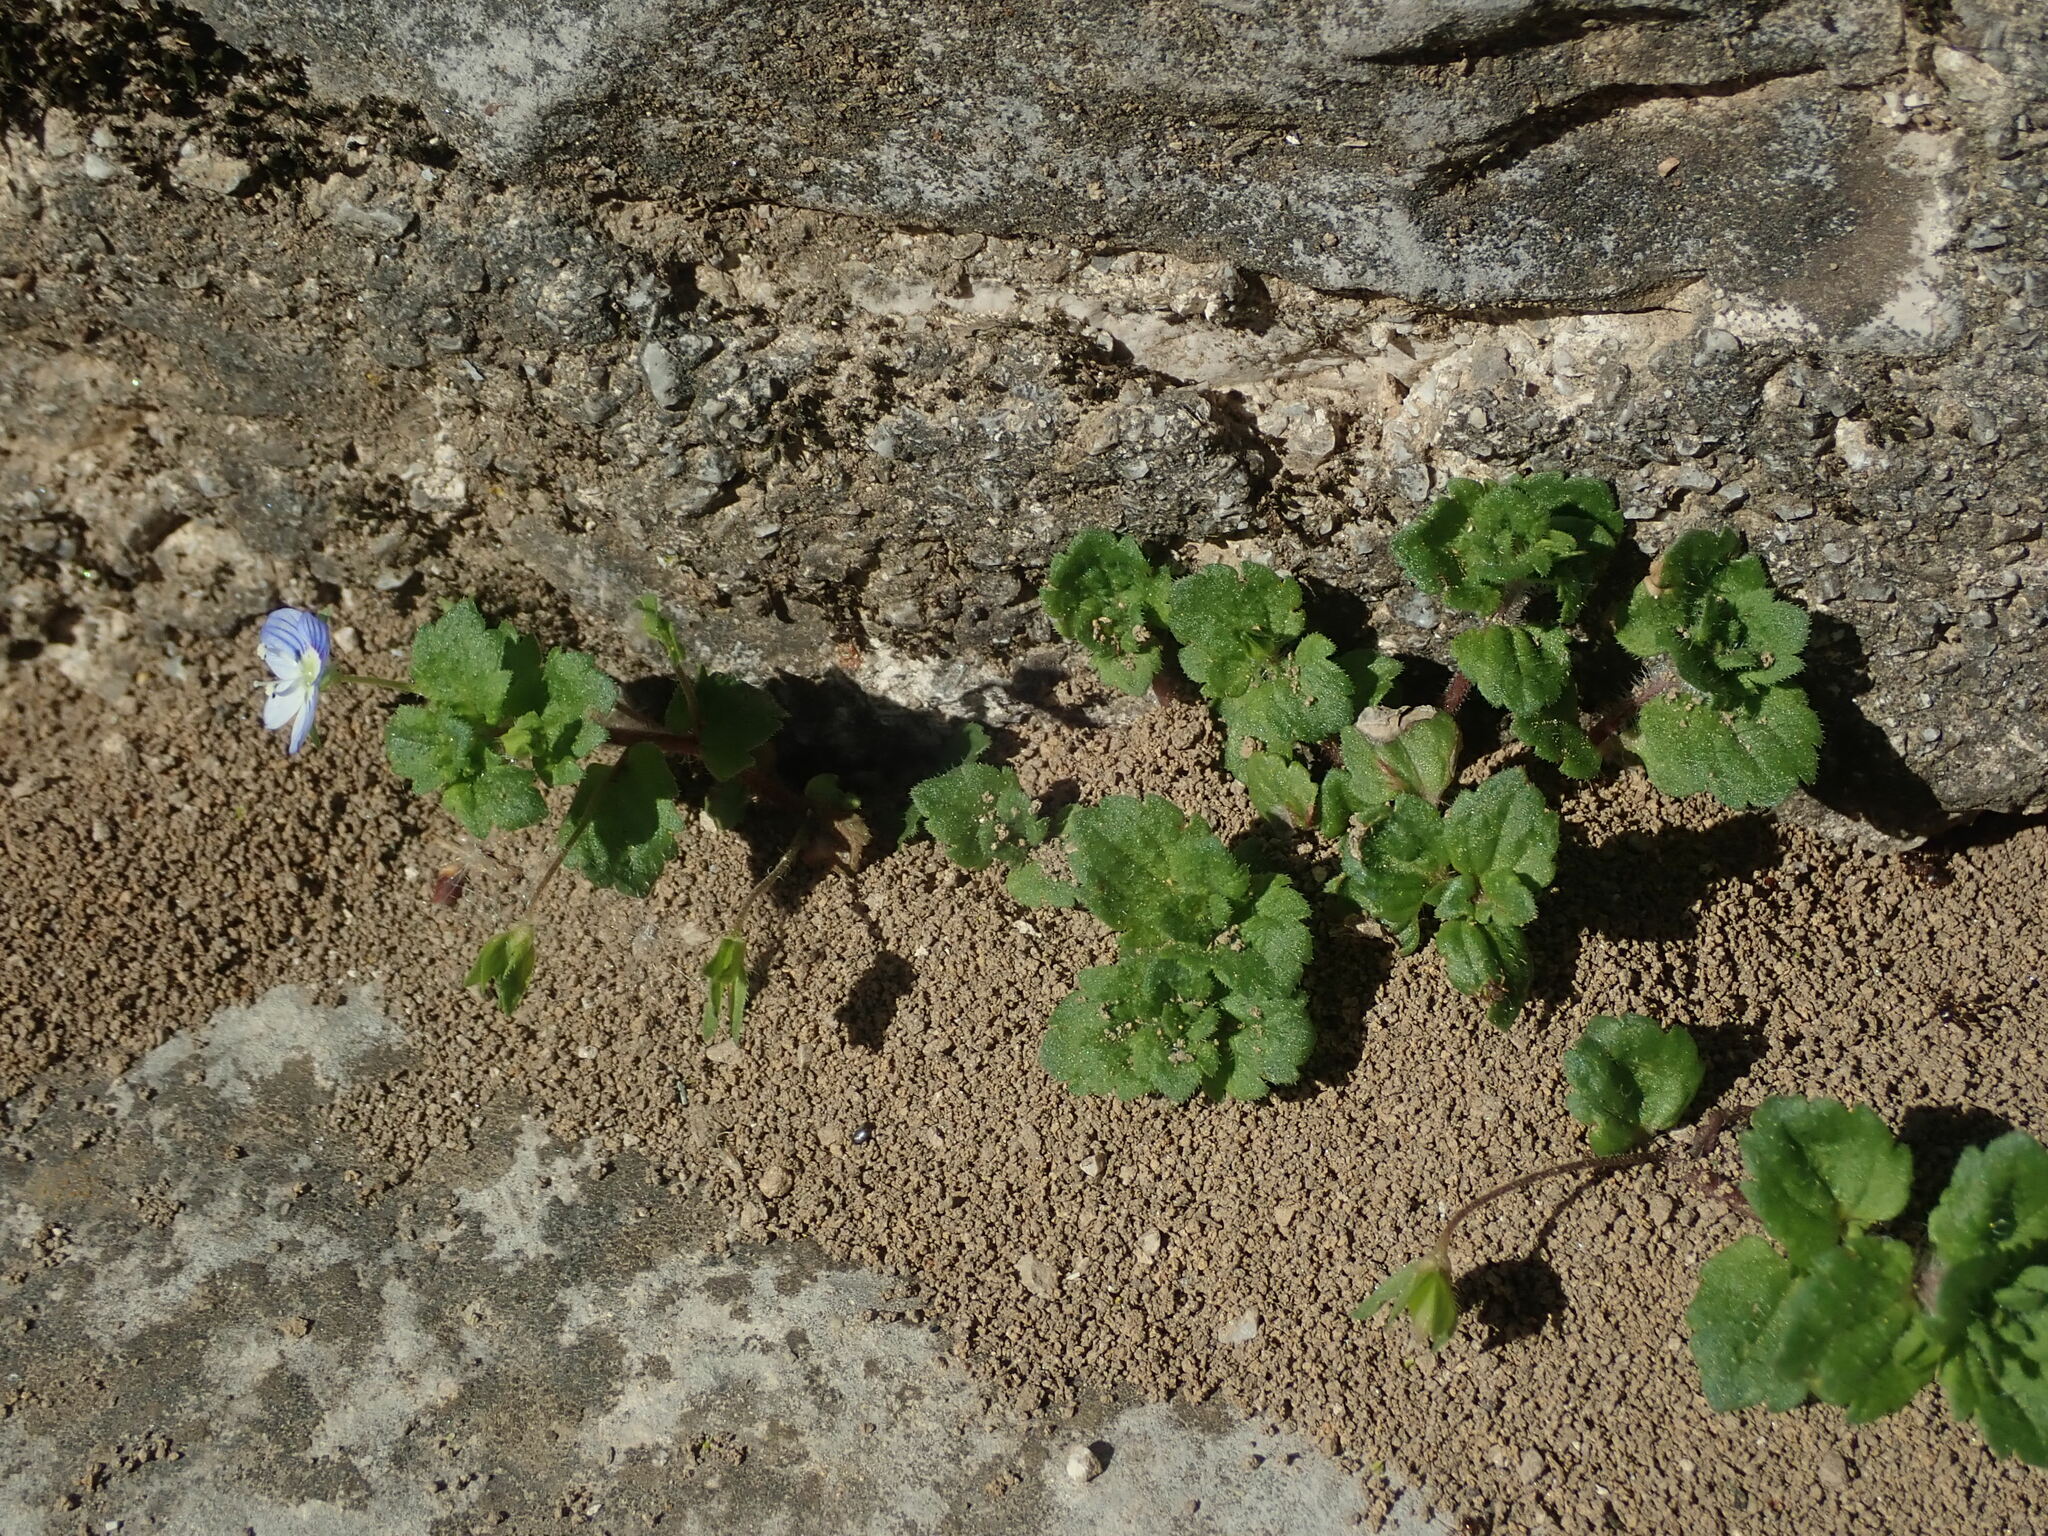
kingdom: Plantae
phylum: Tracheophyta
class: Magnoliopsida
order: Lamiales
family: Plantaginaceae
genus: Veronica
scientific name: Veronica persica
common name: Common field-speedwell
